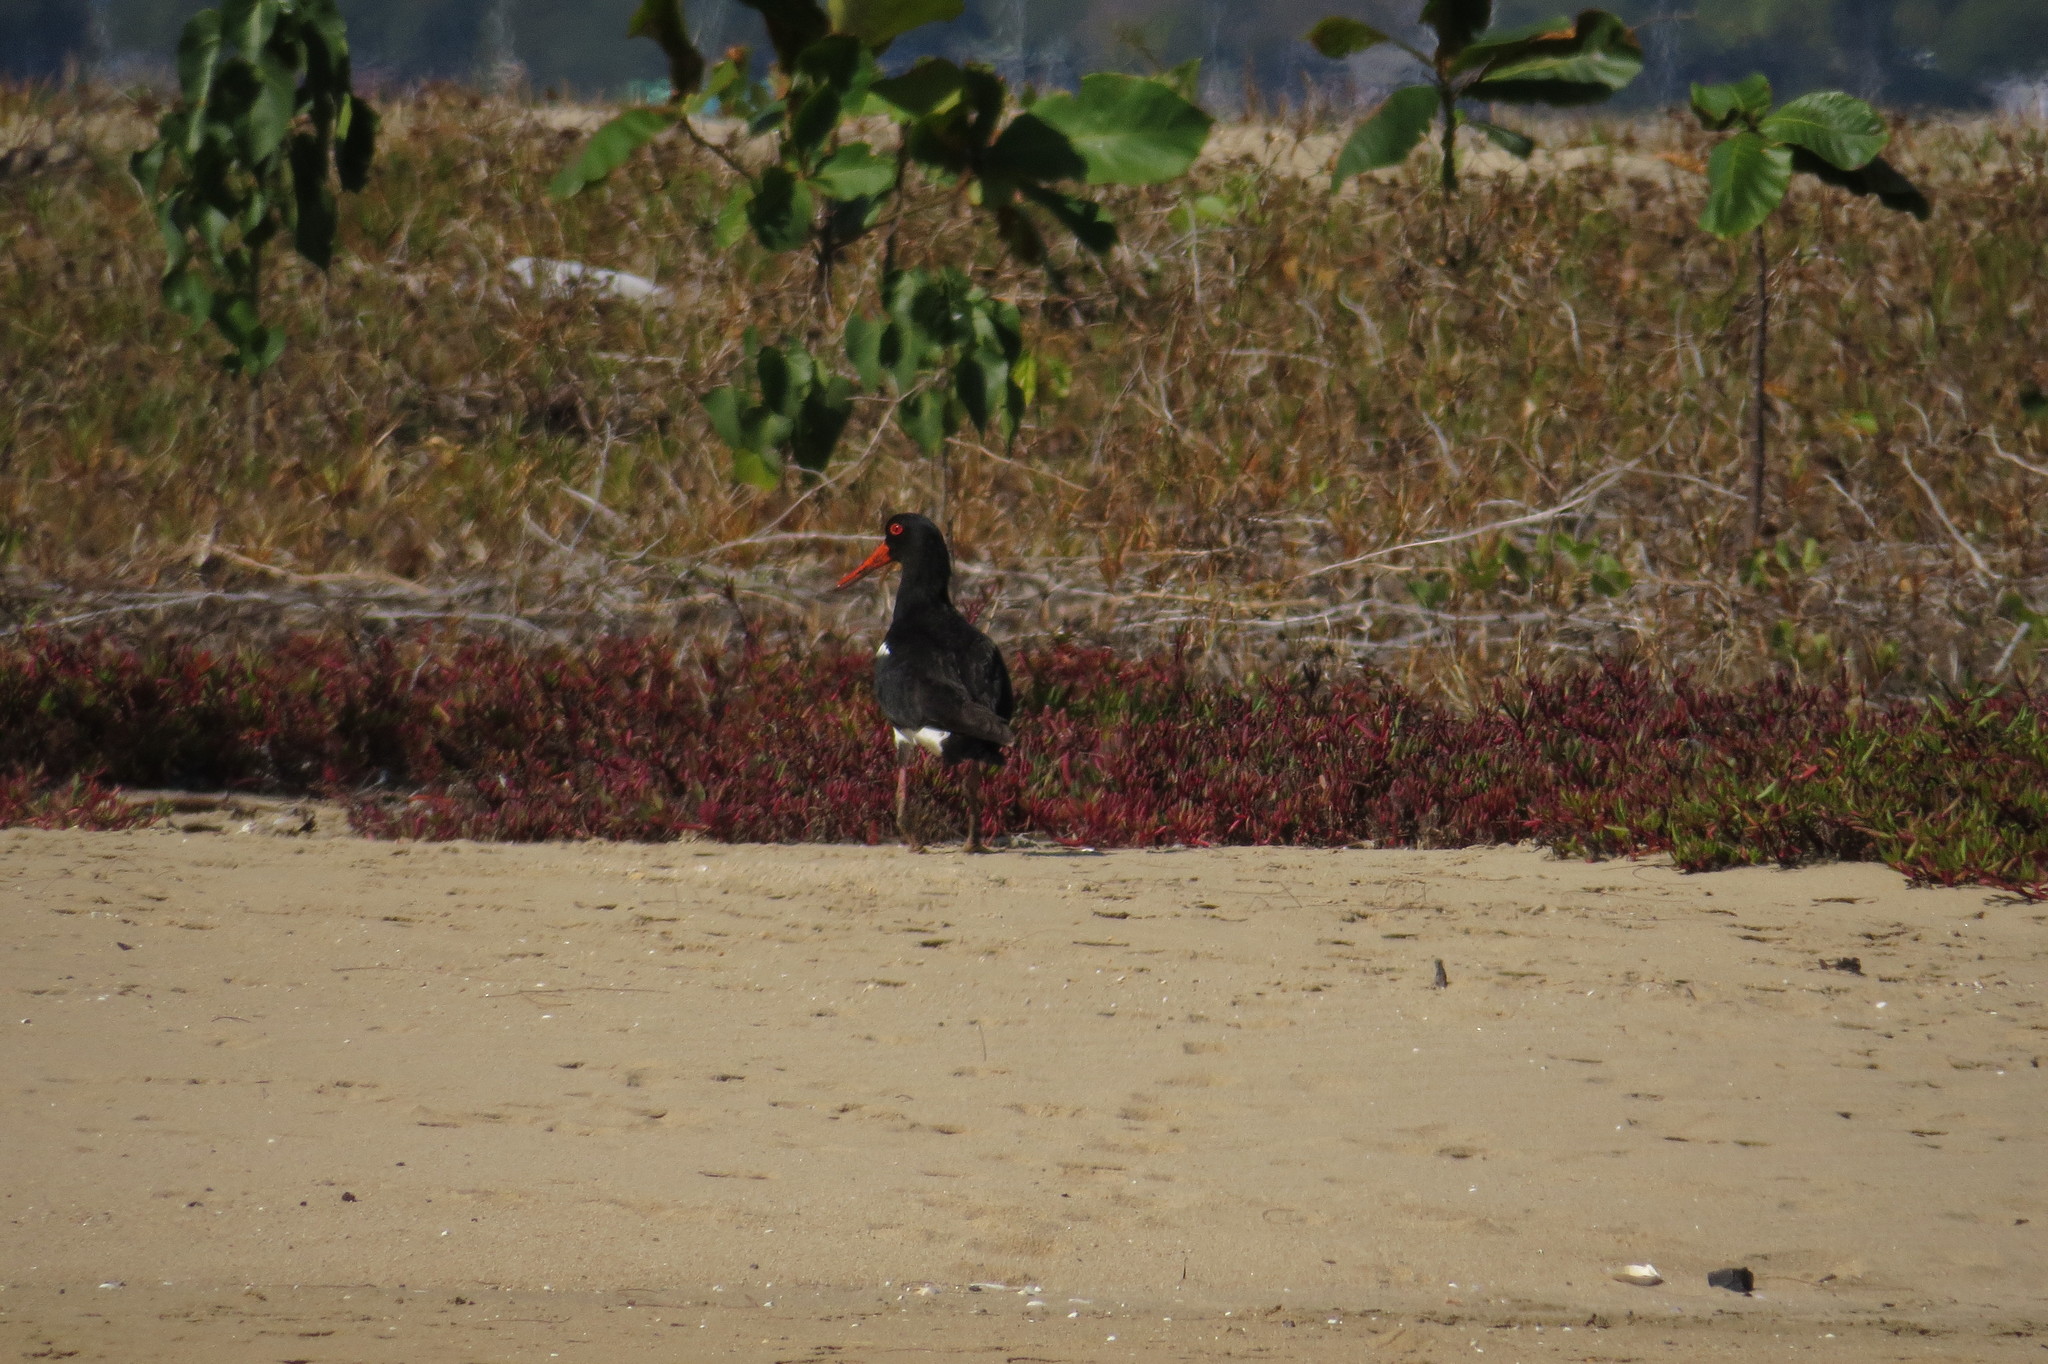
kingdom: Animalia
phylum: Chordata
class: Aves
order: Charadriiformes
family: Haematopodidae
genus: Haematopus
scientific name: Haematopus longirostris
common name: Pied oystercatcher
